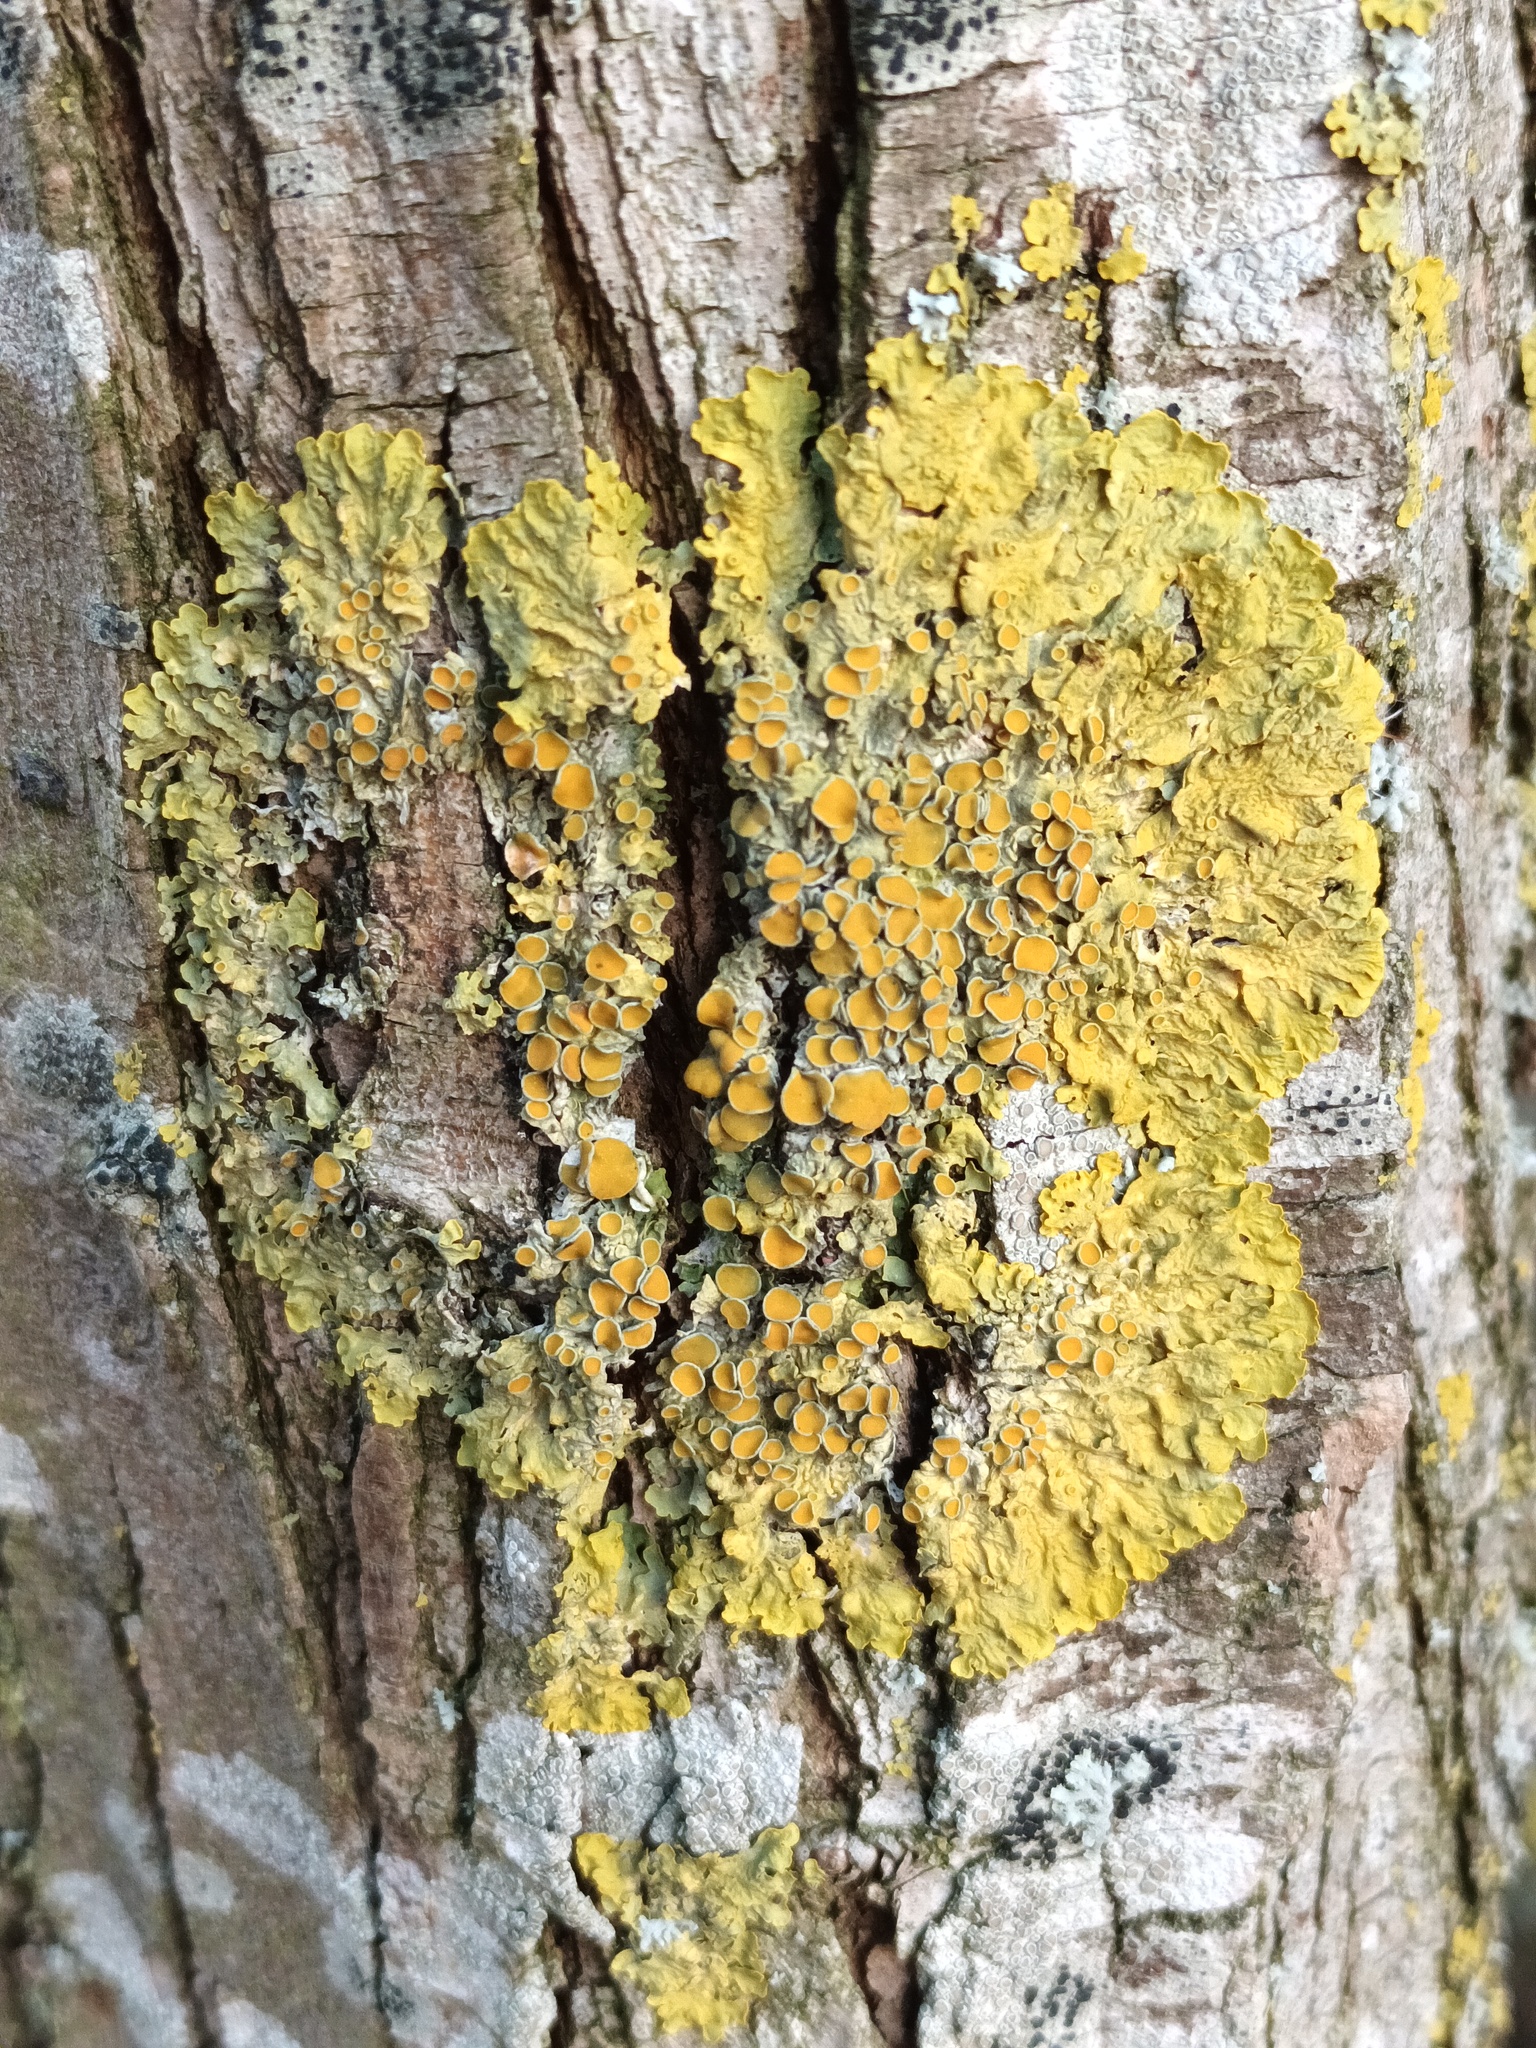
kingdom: Fungi
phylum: Ascomycota
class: Lecanoromycetes
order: Teloschistales
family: Teloschistaceae
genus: Xanthoria
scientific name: Xanthoria parietina
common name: Common orange lichen
